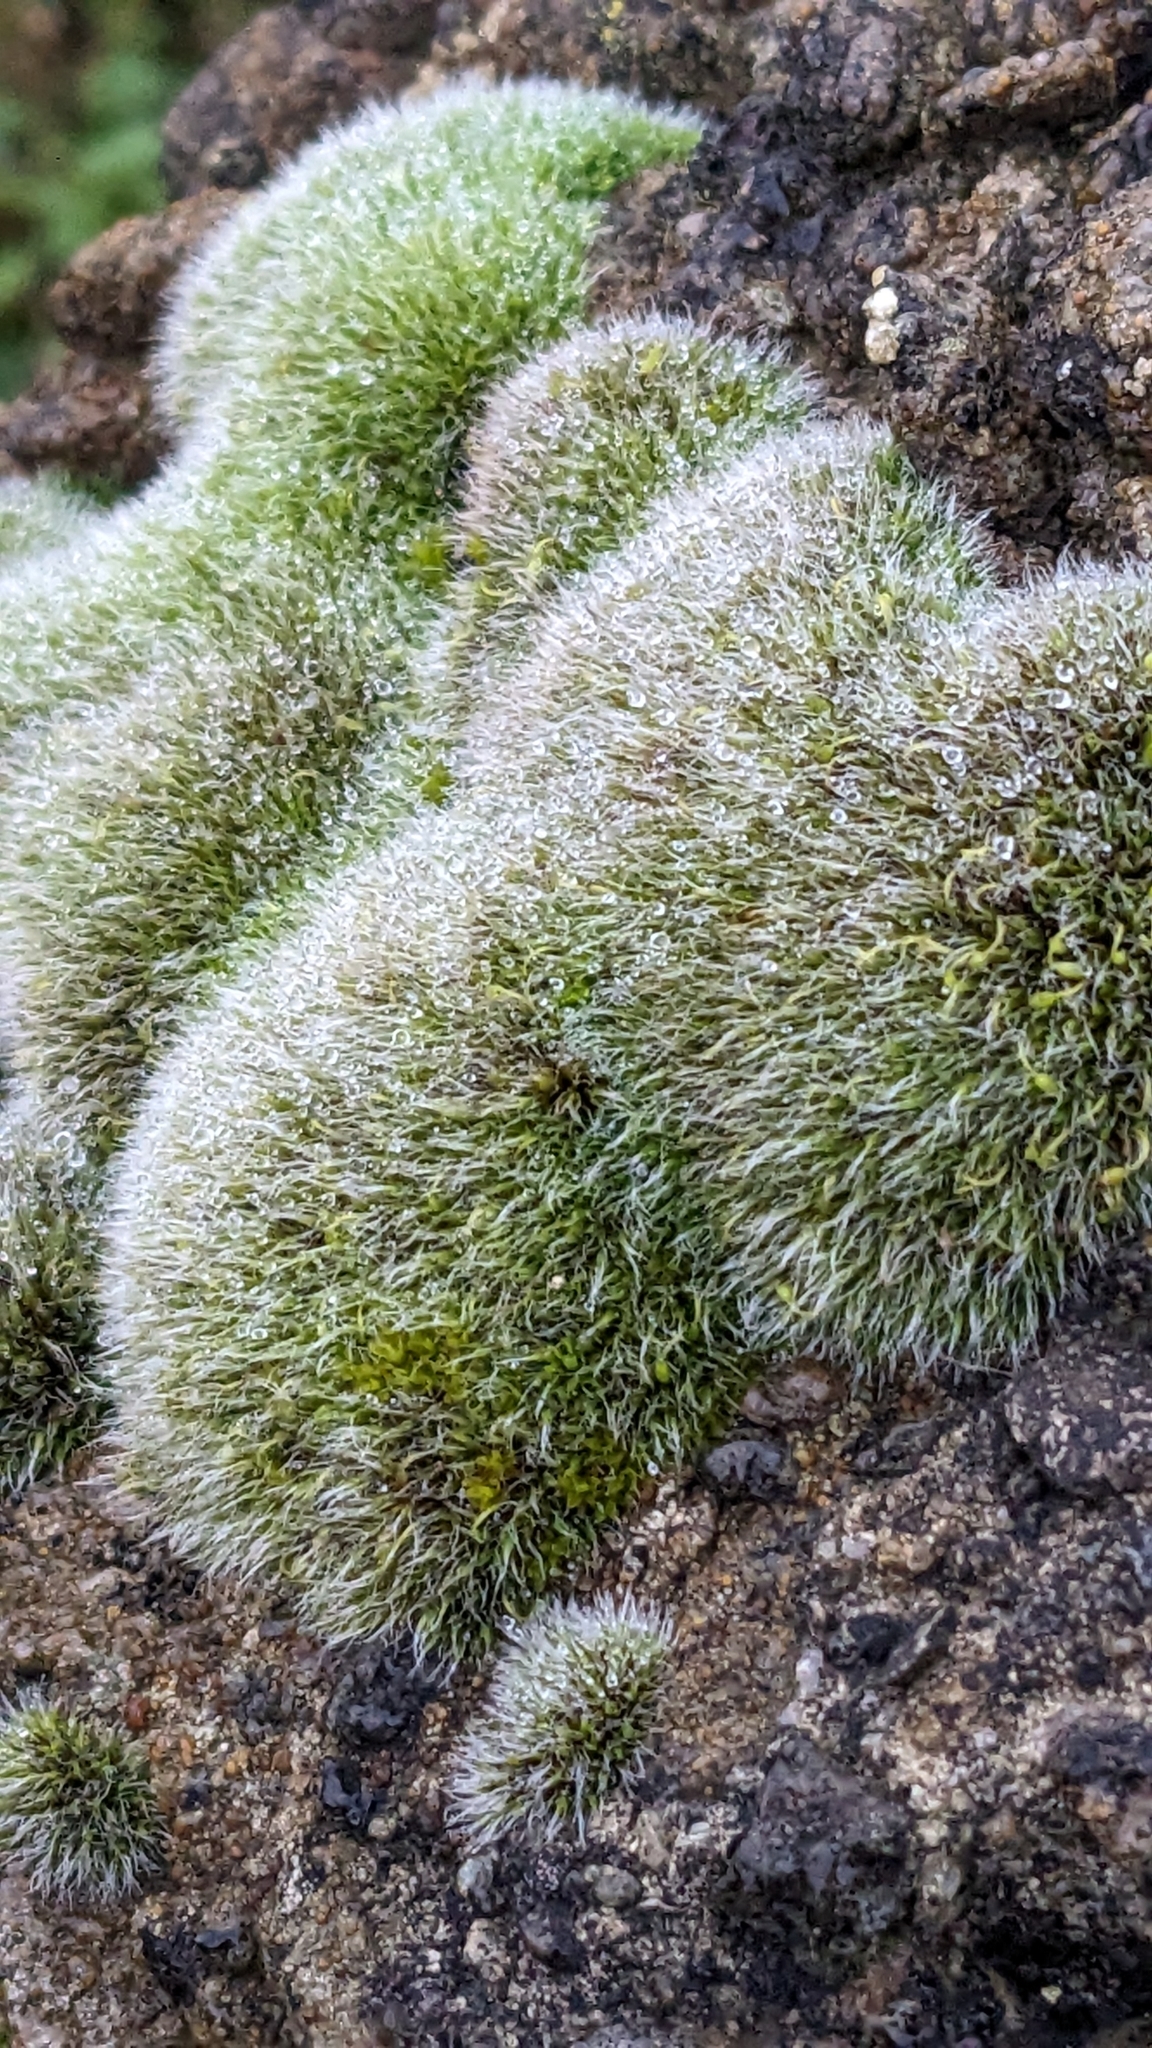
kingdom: Plantae
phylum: Bryophyta
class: Bryopsida
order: Grimmiales
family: Grimmiaceae
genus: Grimmia
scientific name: Grimmia pulvinata
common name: Grey-cushioned grimmia
